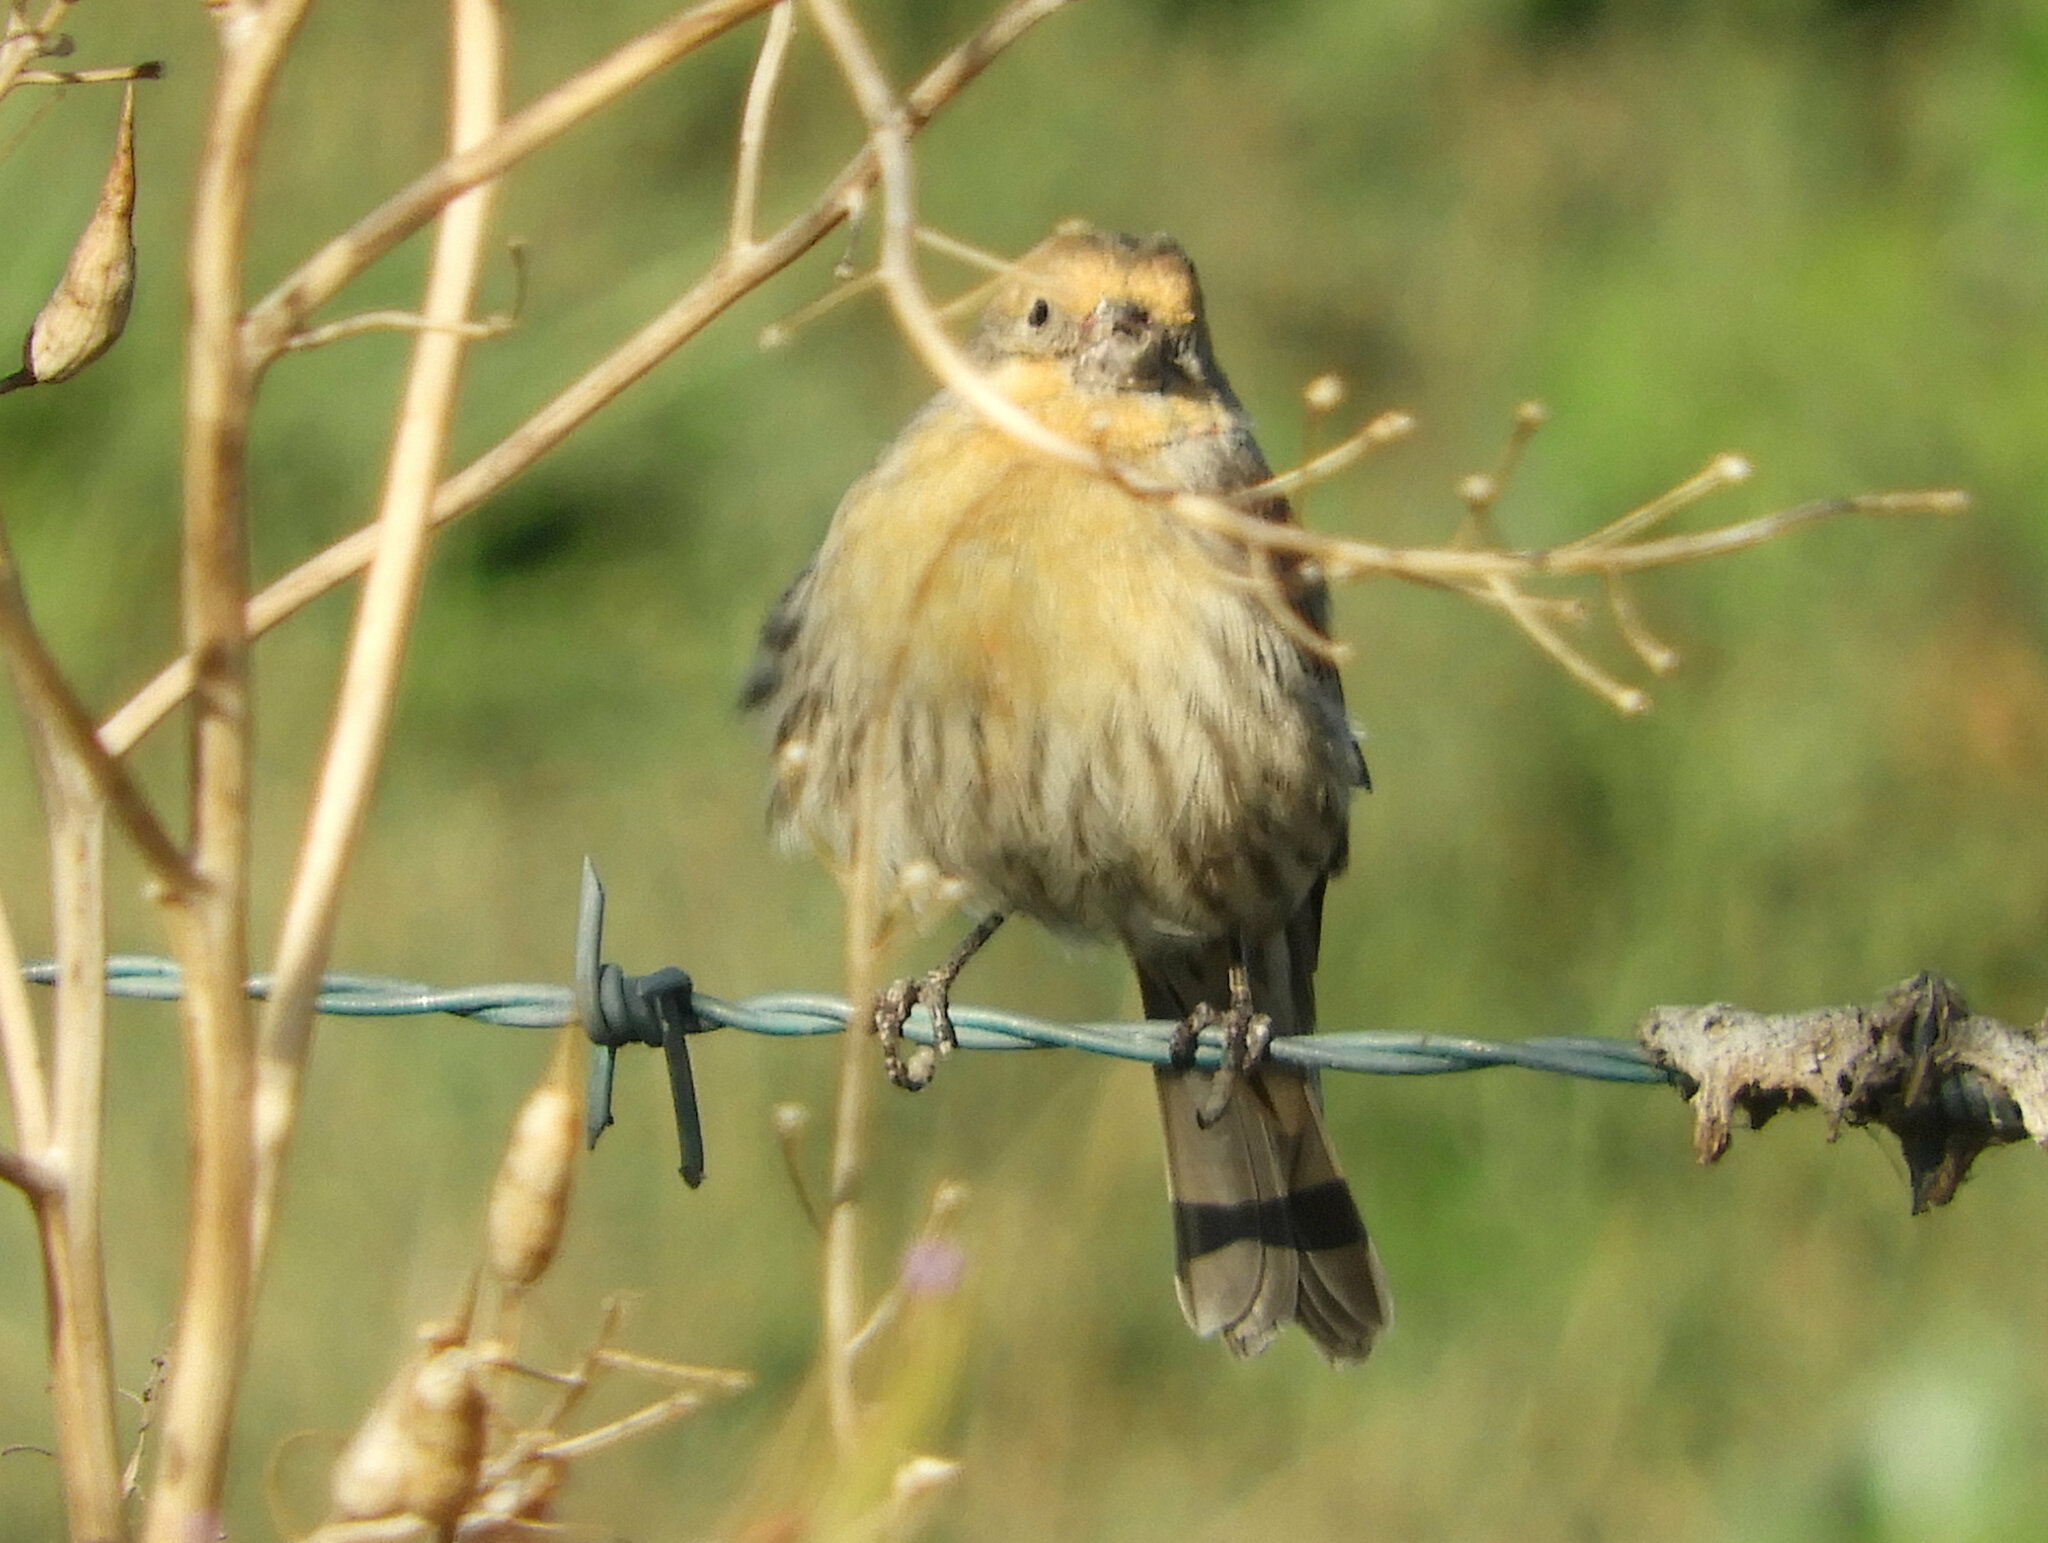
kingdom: Animalia
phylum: Chordata
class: Aves
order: Passeriformes
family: Fringillidae
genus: Haemorhous
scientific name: Haemorhous mexicanus
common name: House finch
